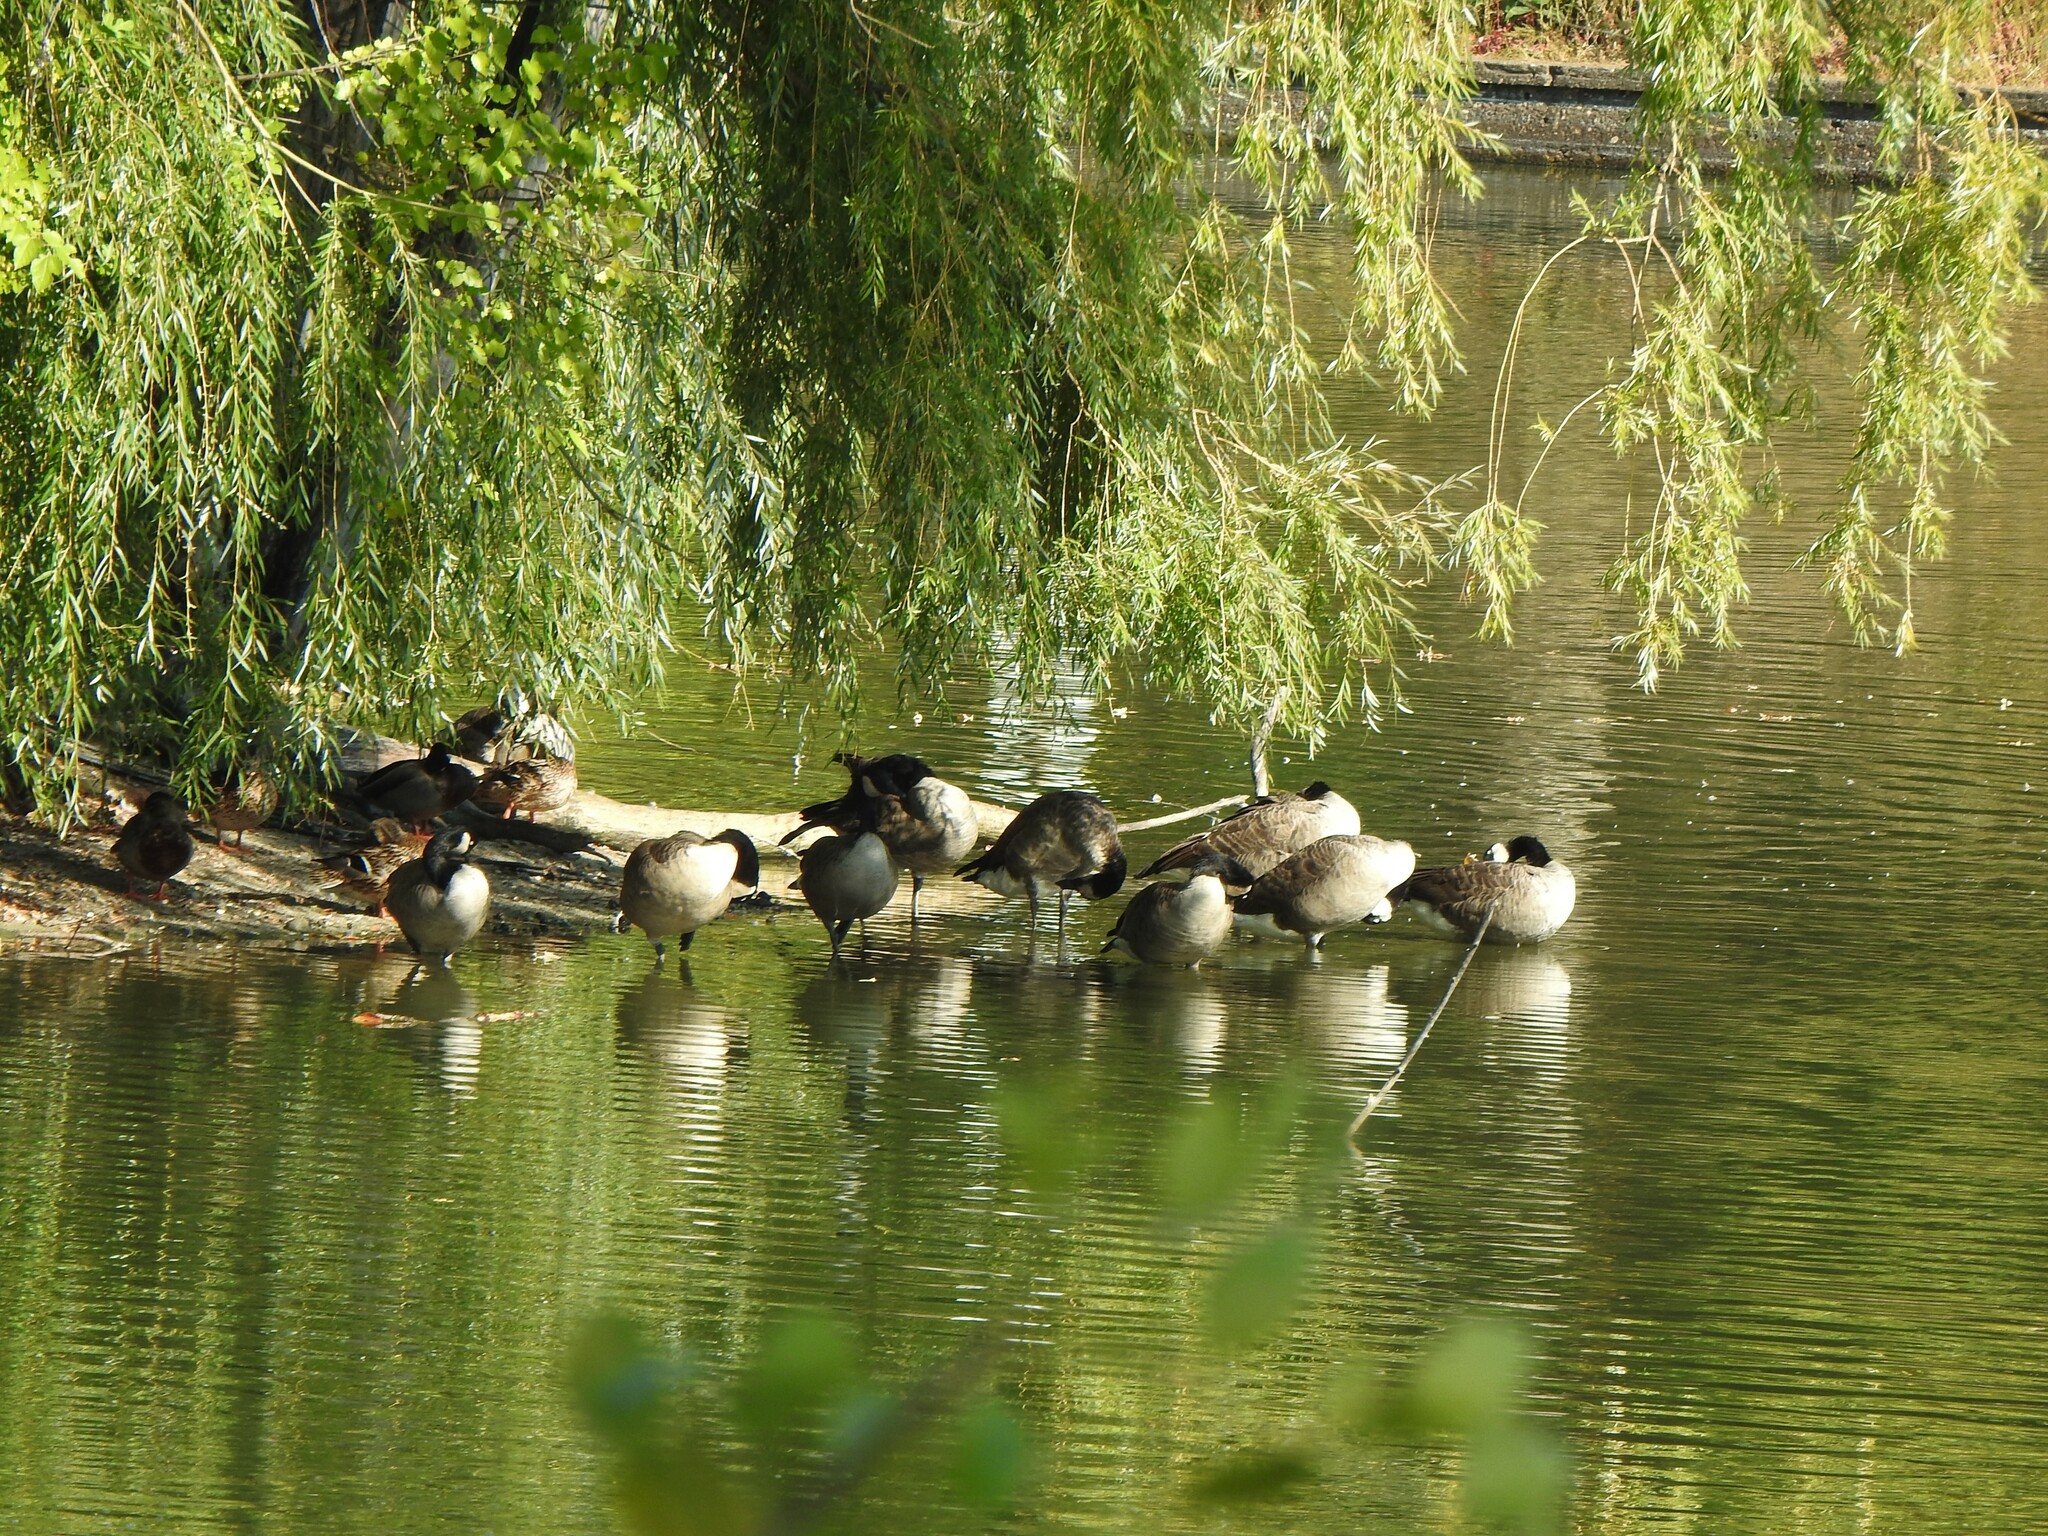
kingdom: Animalia
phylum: Chordata
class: Aves
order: Anseriformes
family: Anatidae
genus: Branta
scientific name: Branta canadensis
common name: Canada goose
